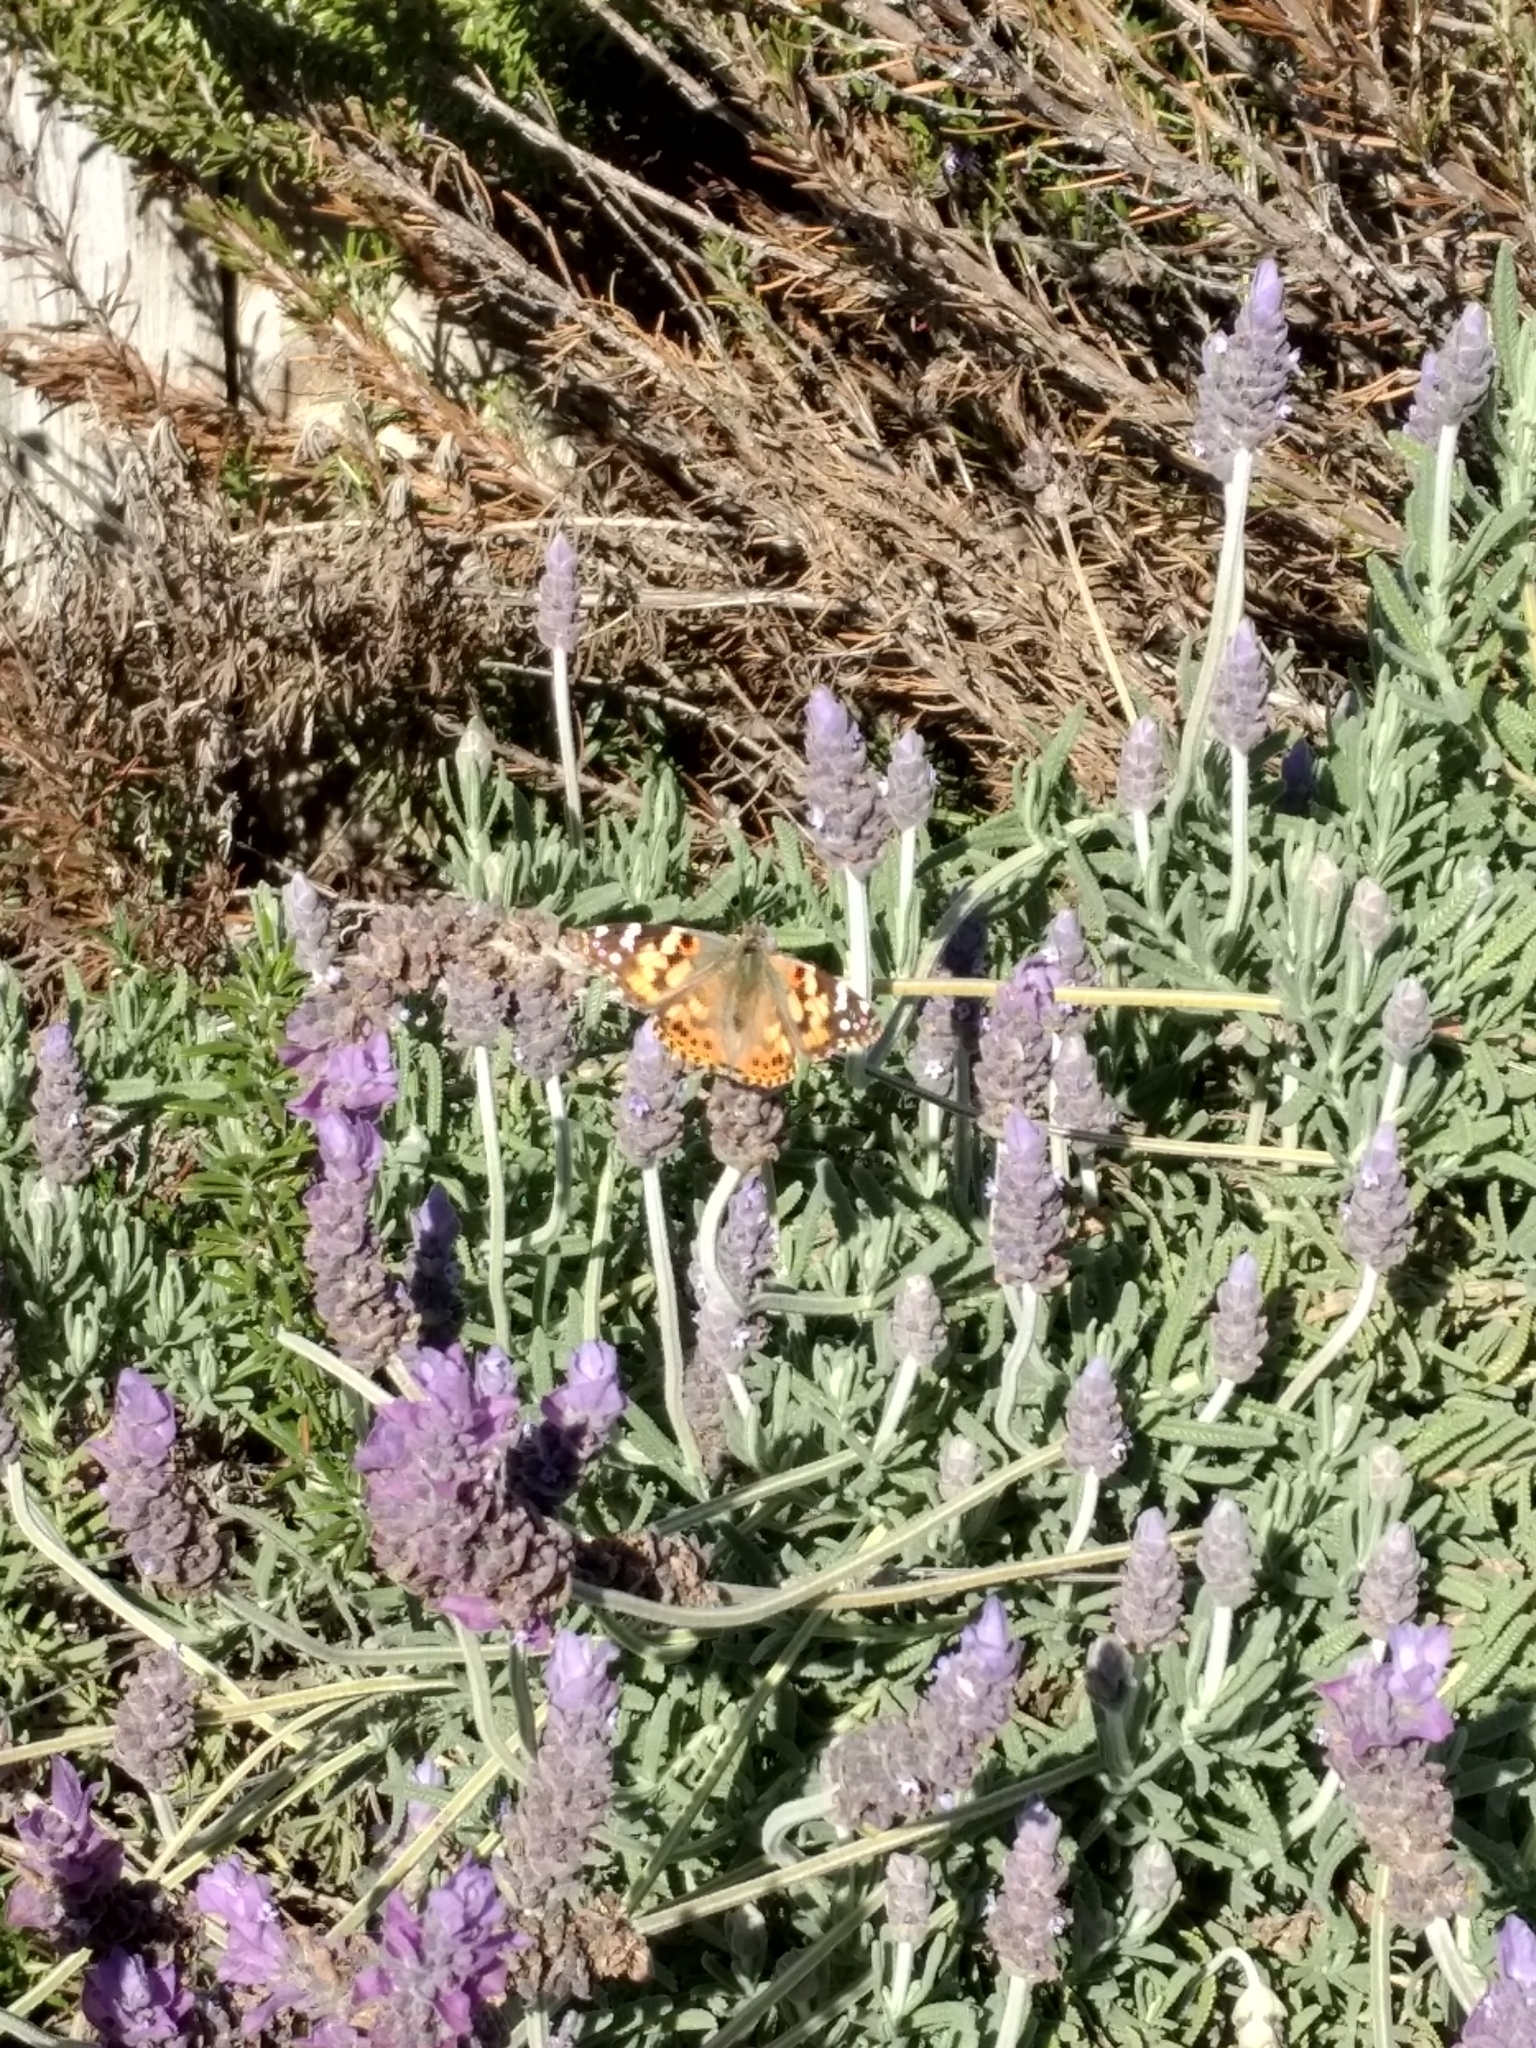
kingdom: Animalia
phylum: Arthropoda
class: Insecta
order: Lepidoptera
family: Nymphalidae
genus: Vanessa
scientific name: Vanessa cardui
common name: Painted lady
